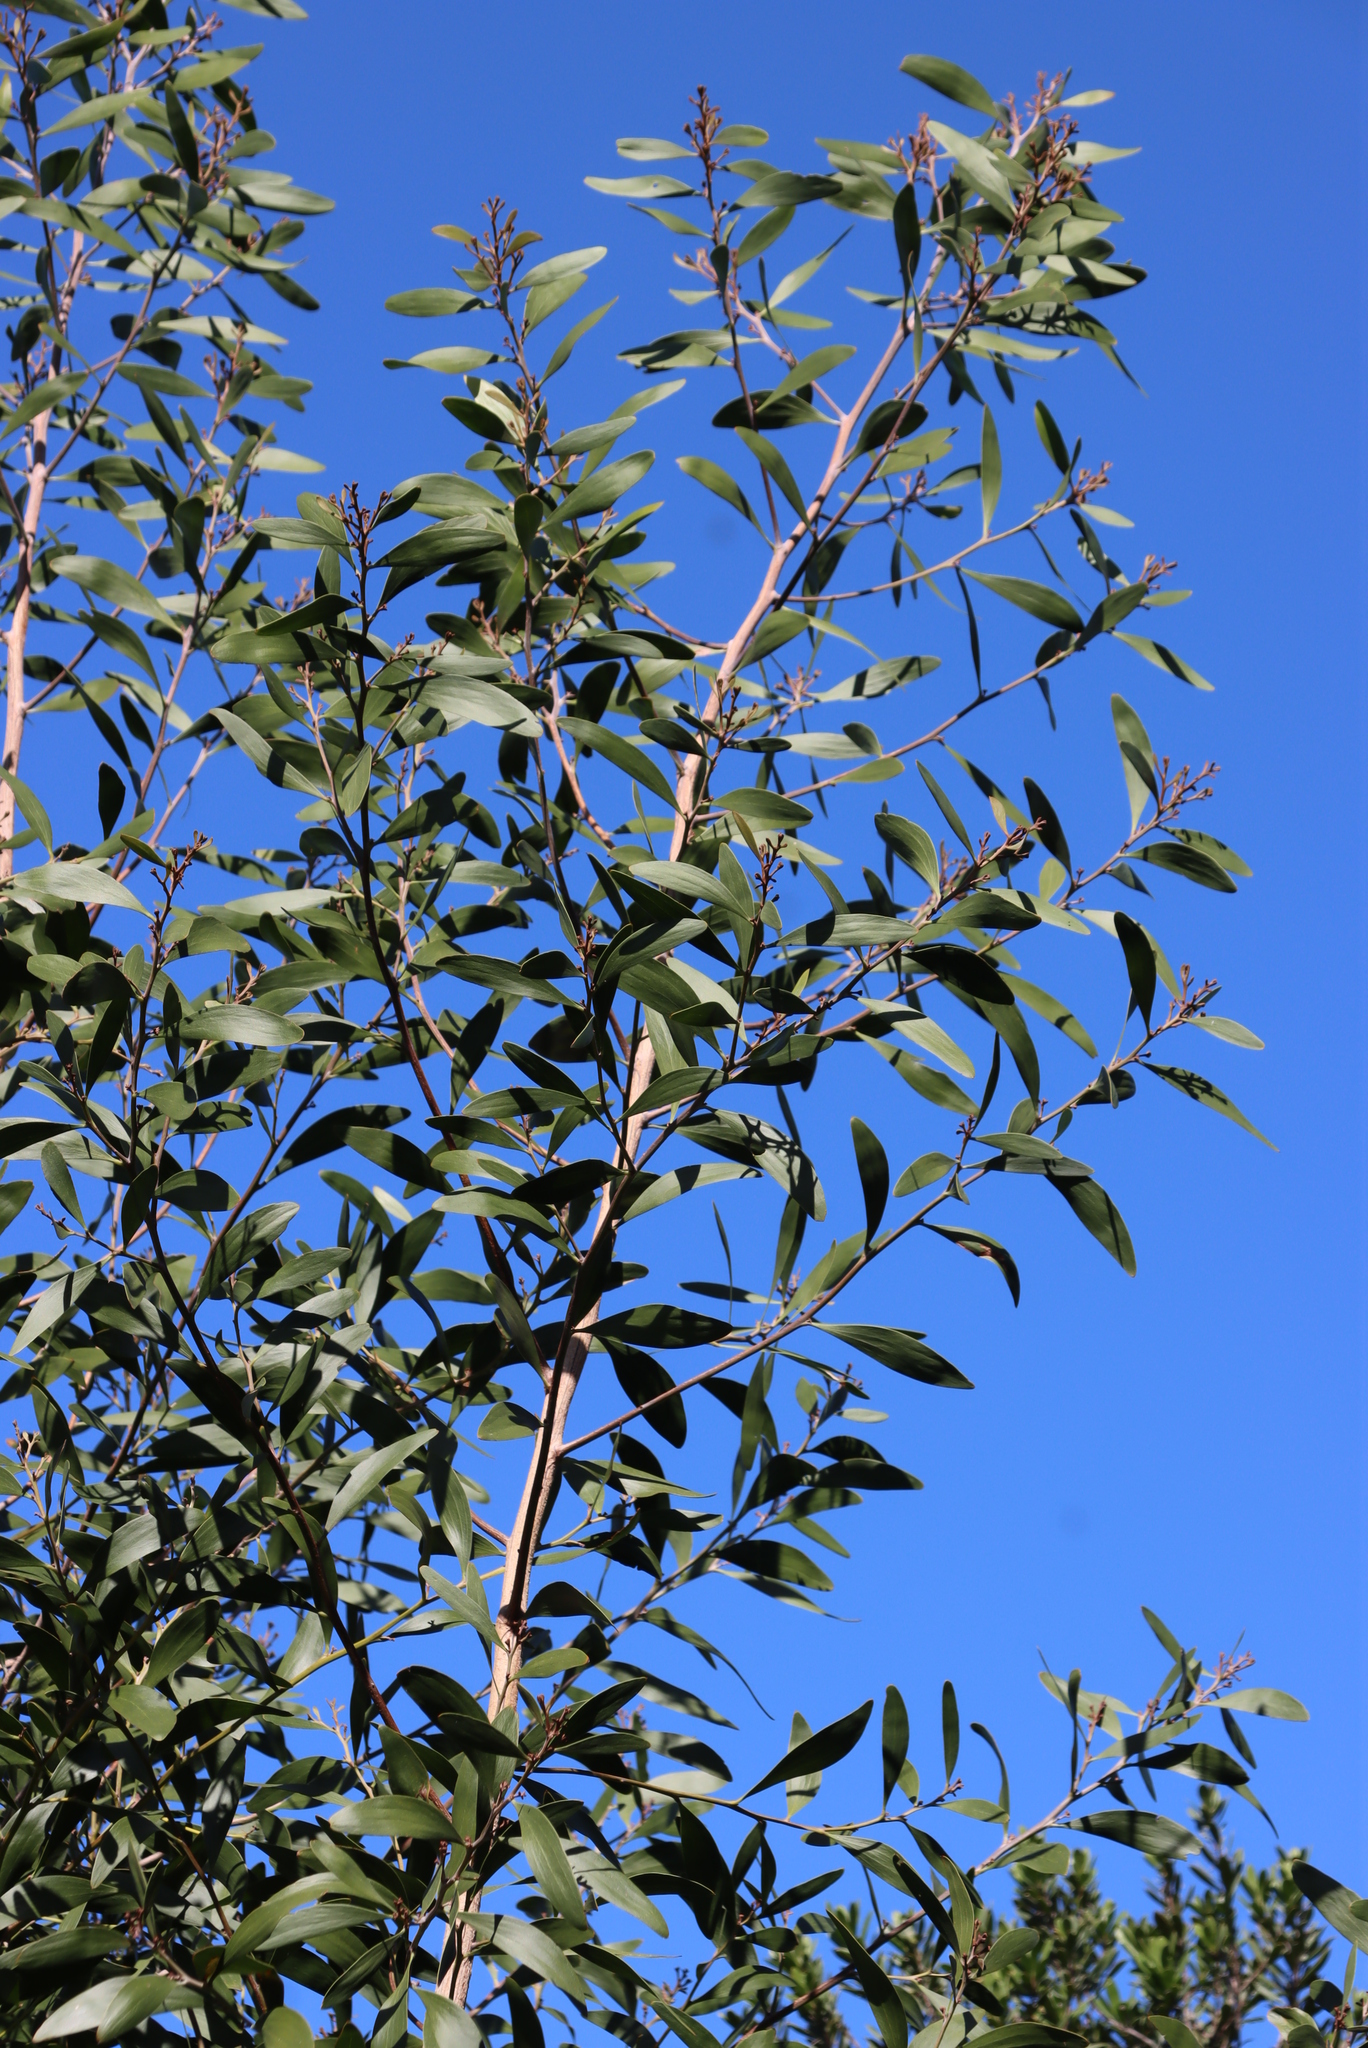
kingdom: Plantae
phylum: Tracheophyta
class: Magnoliopsida
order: Fabales
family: Fabaceae
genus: Acacia
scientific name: Acacia melanoxylon
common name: Blackwood
